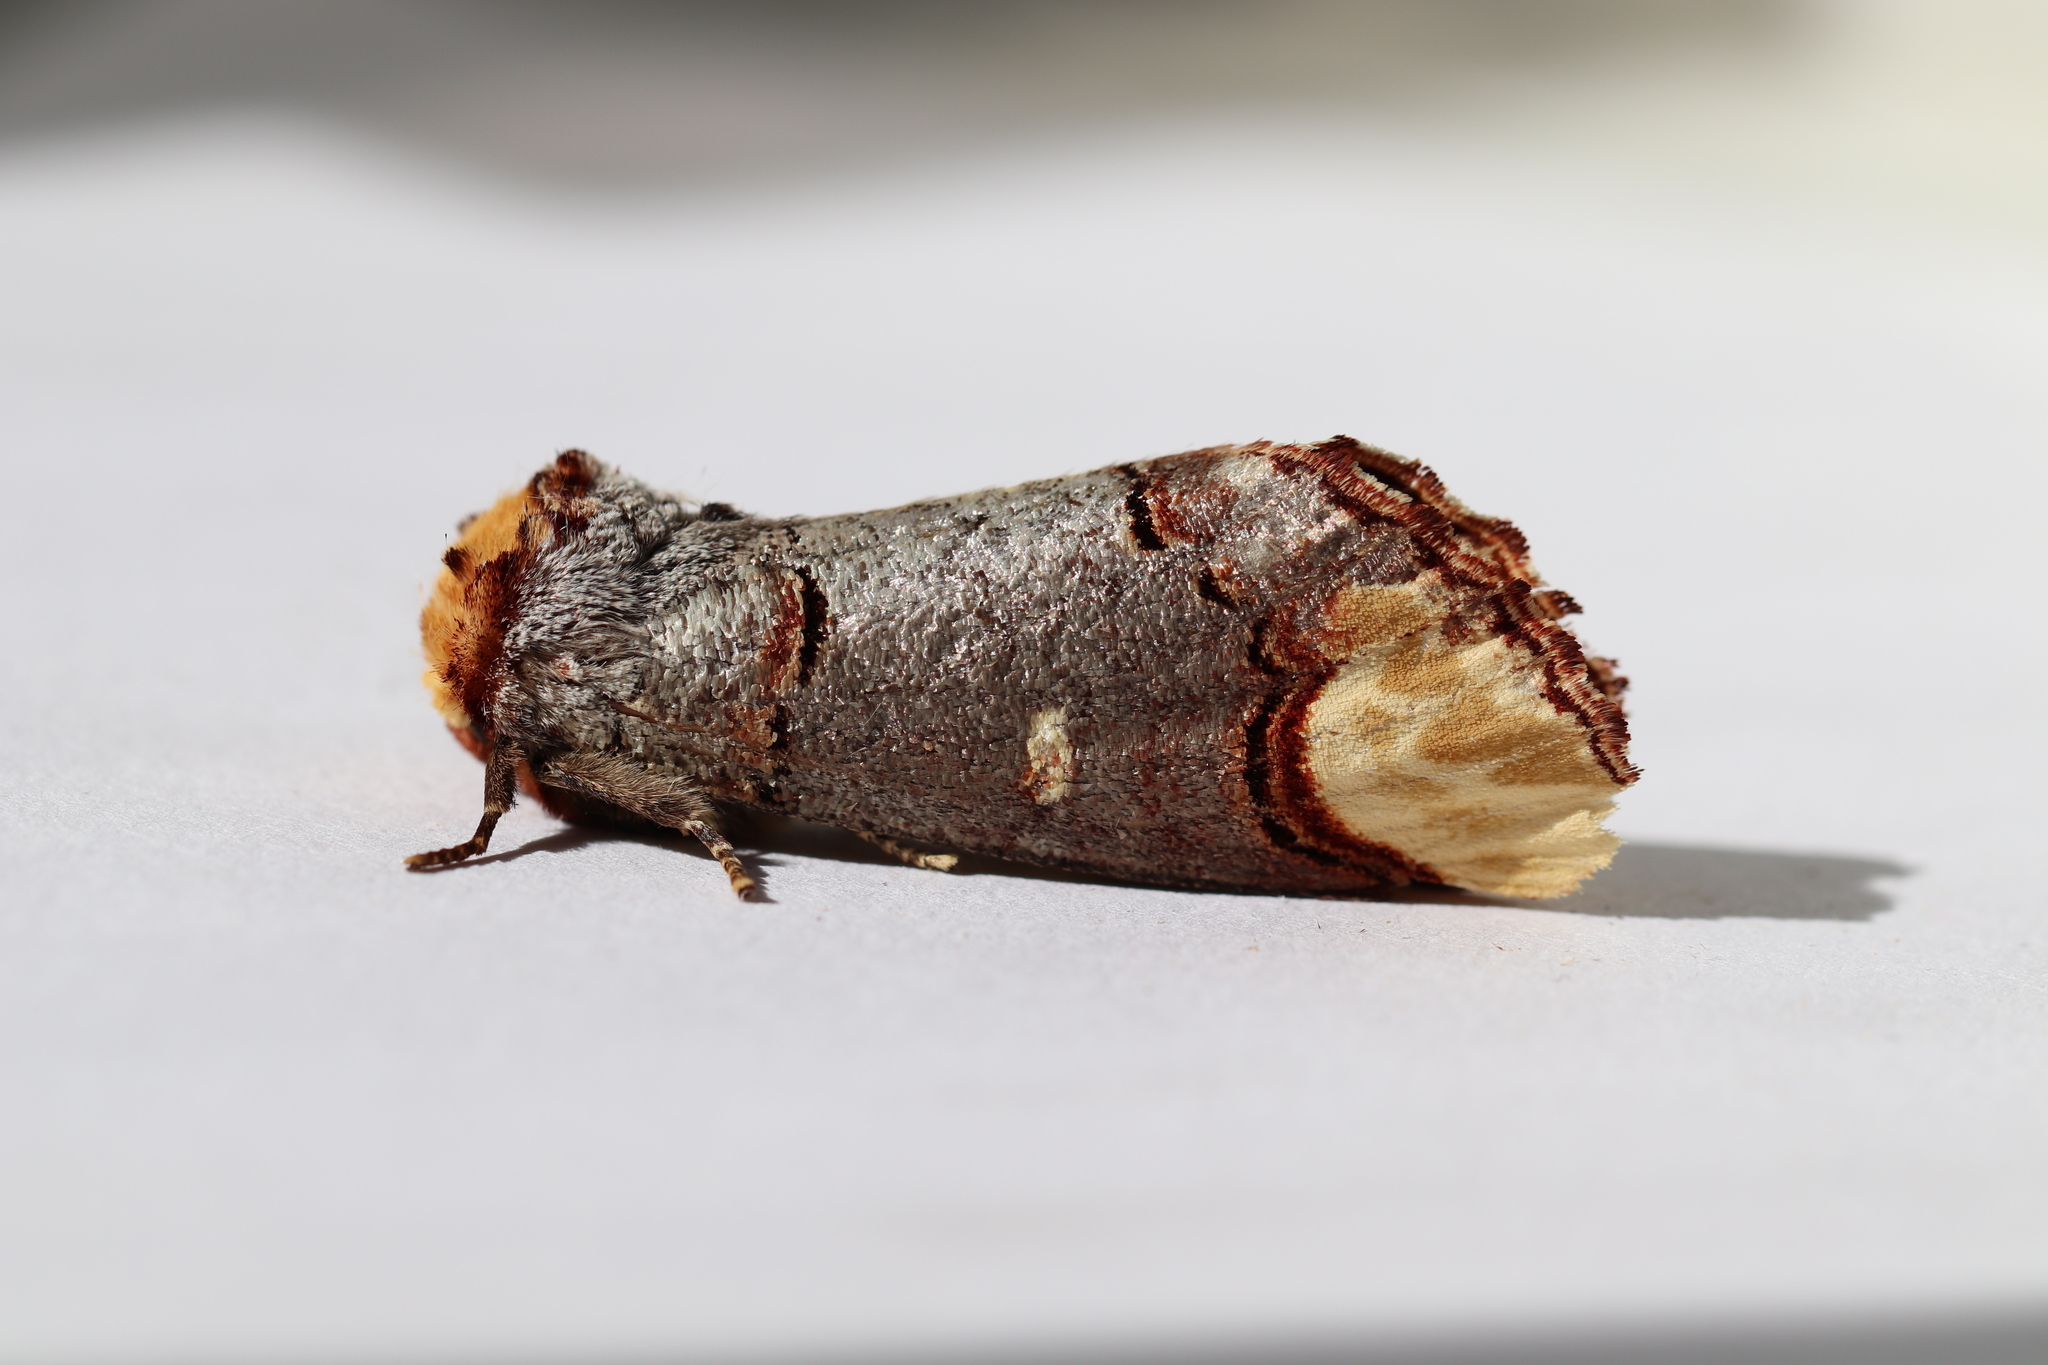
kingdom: Animalia
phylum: Arthropoda
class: Insecta
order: Lepidoptera
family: Notodontidae
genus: Phalera
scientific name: Phalera bucephala
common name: Buff-tip
